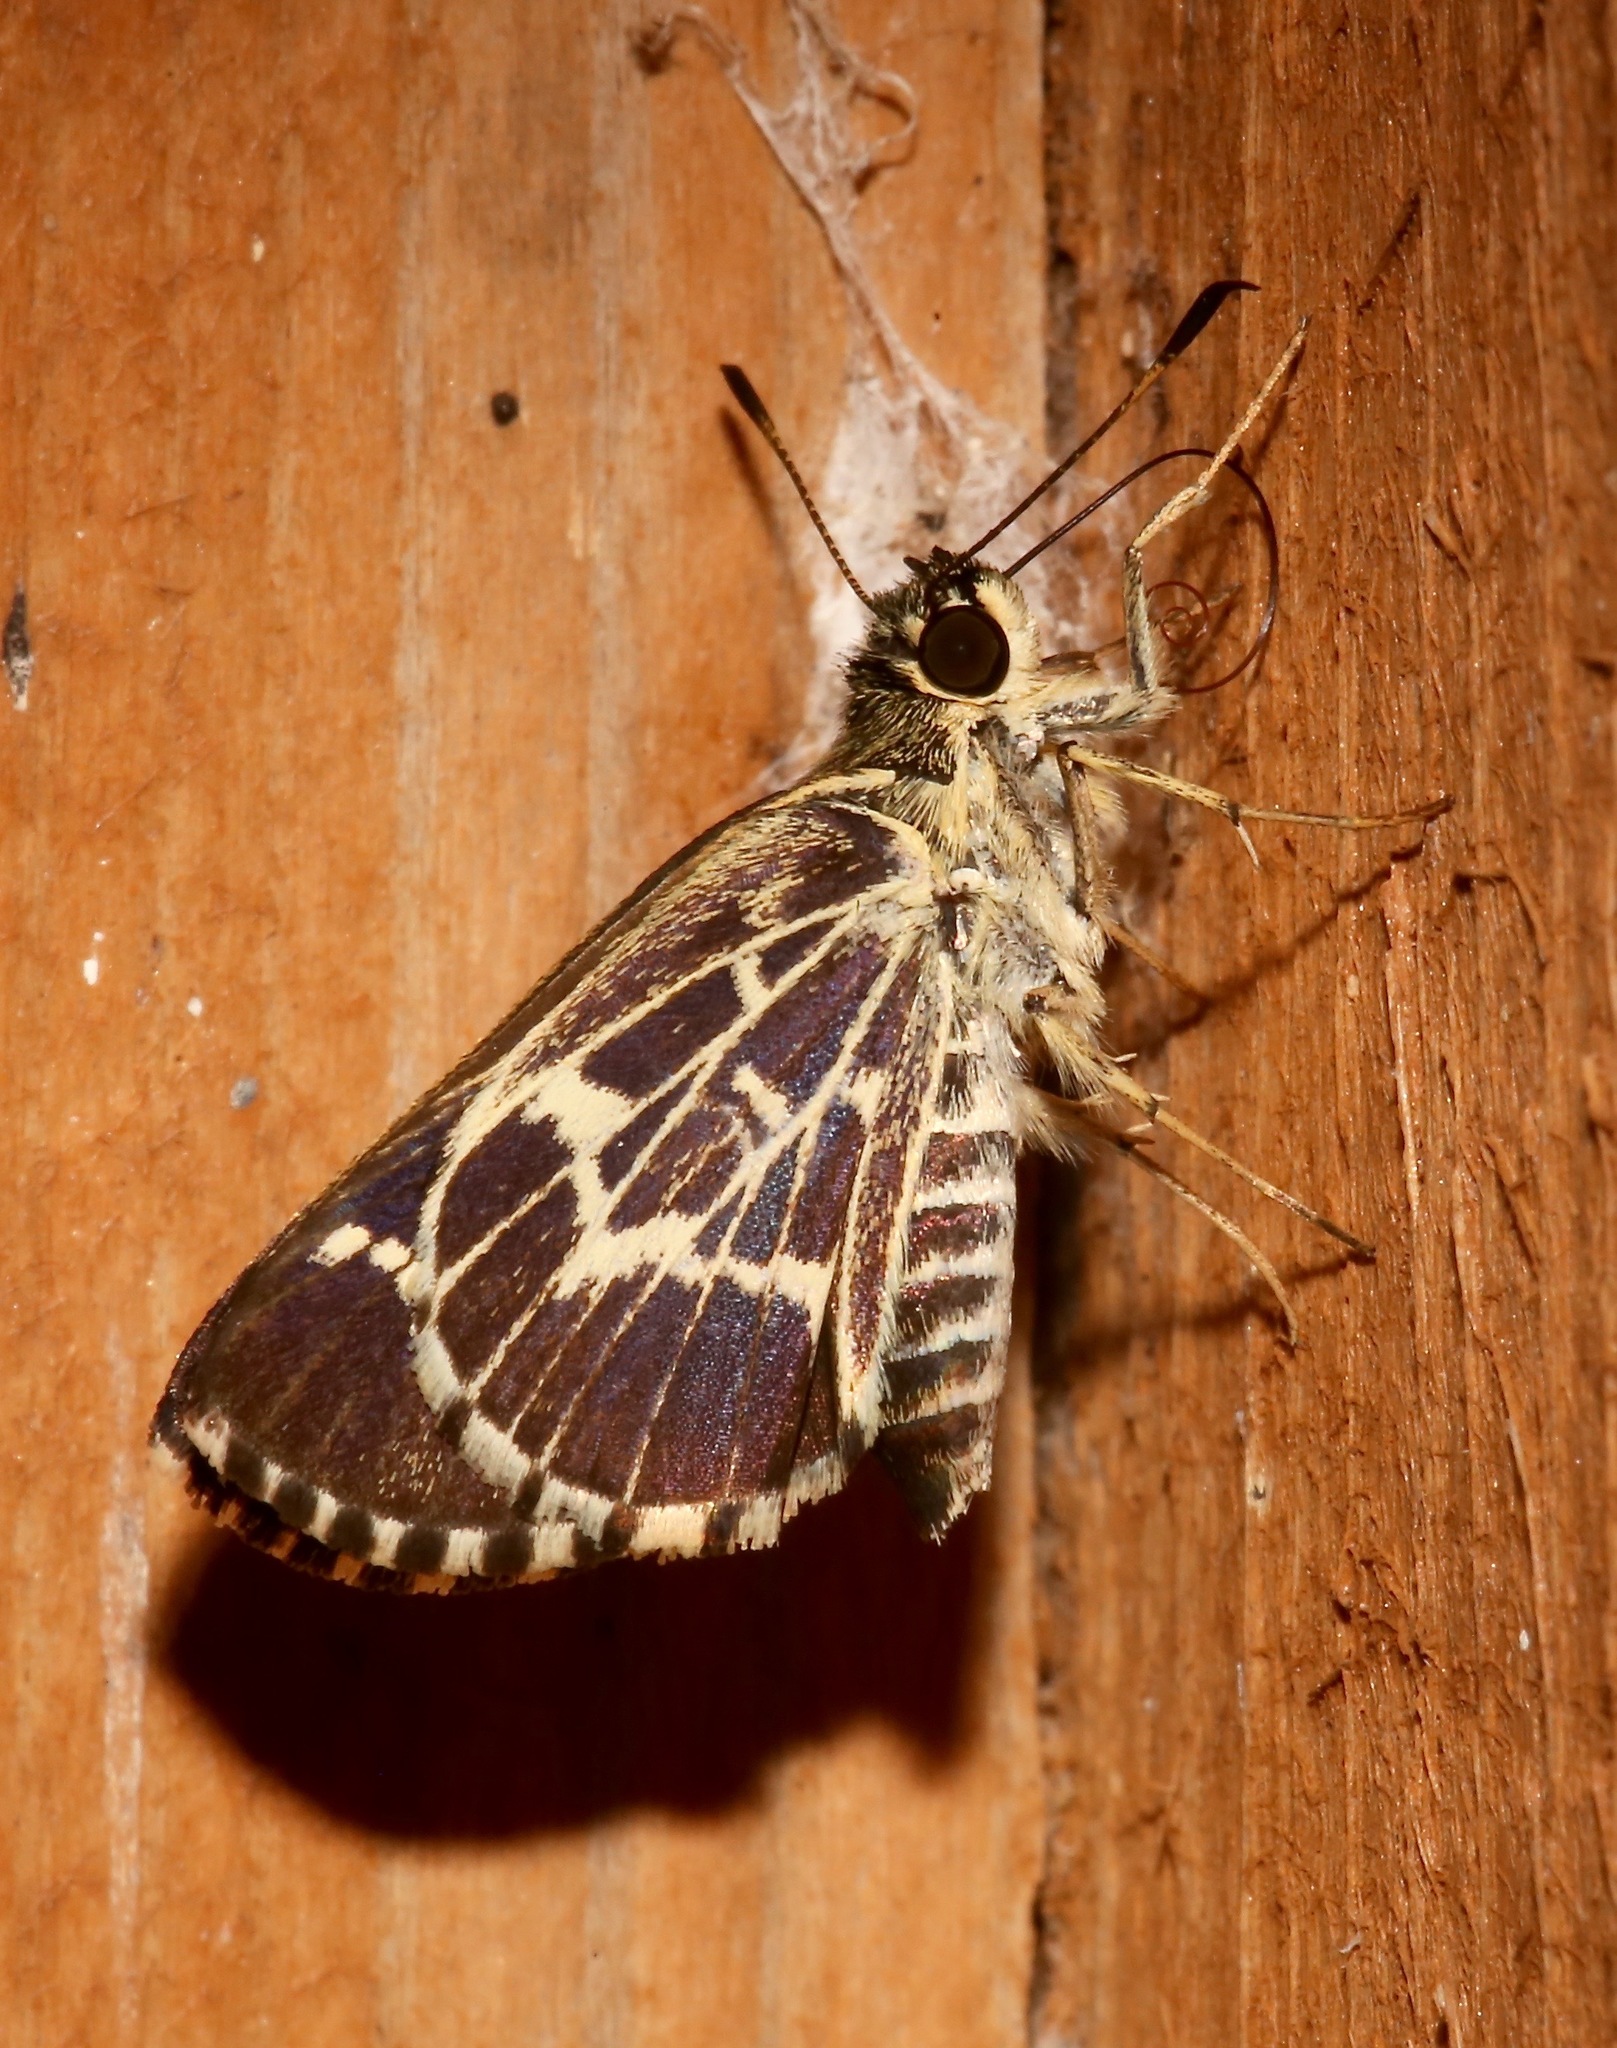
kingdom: Animalia
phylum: Arthropoda
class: Insecta
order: Lepidoptera
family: Hesperiidae
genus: Mastor
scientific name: Mastor aesculapius
